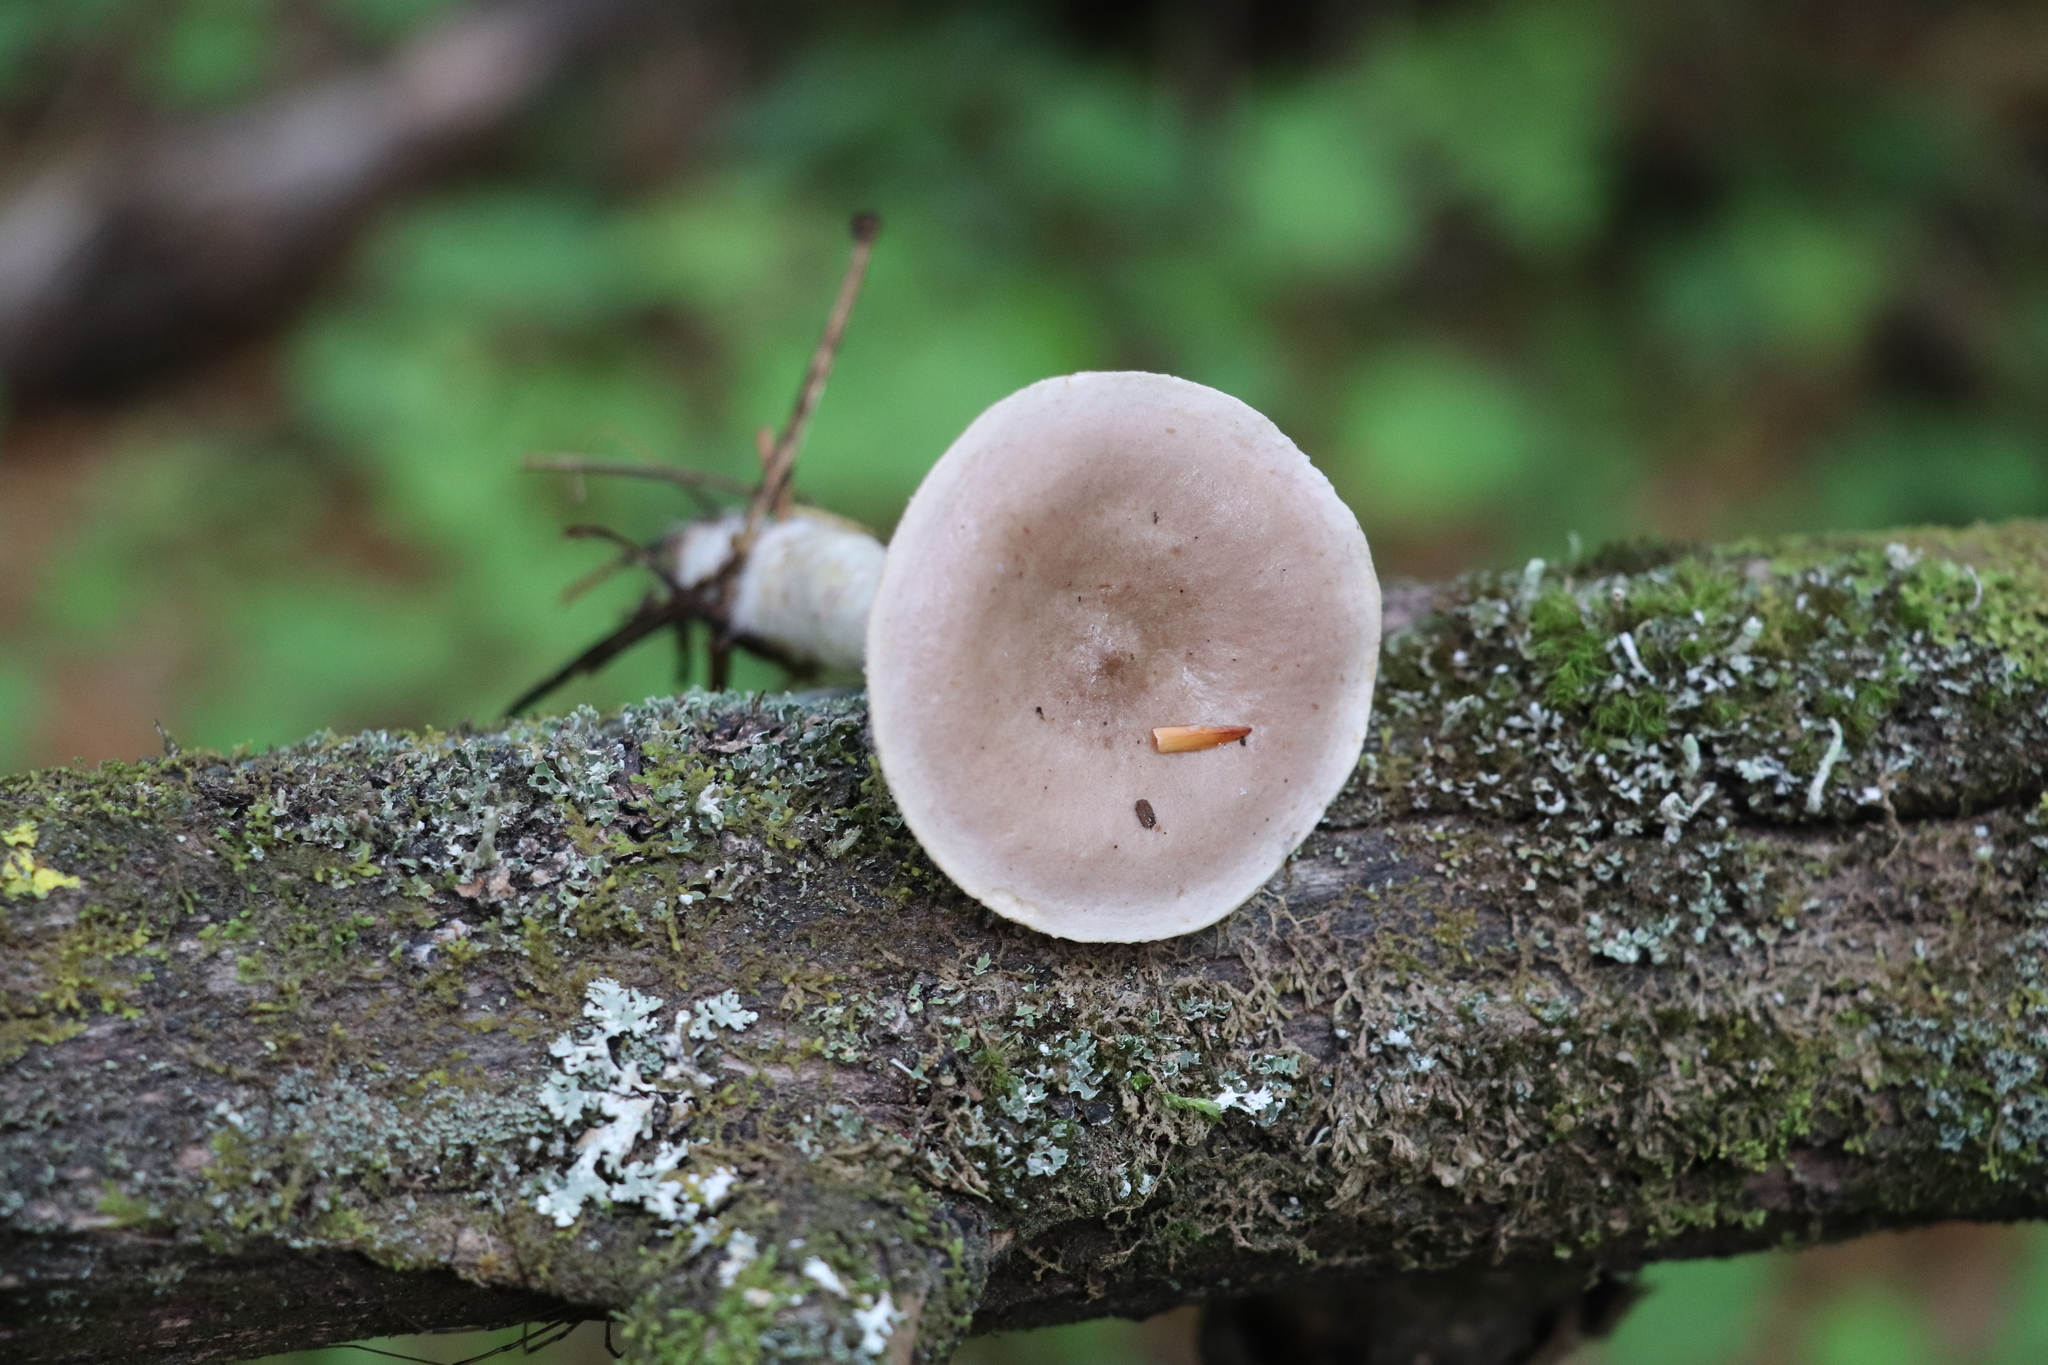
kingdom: Fungi
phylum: Basidiomycota
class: Agaricomycetes
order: Russulales
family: Russulaceae
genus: Lactarius
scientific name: Lactarius uvidus
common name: Shiner milkcap
